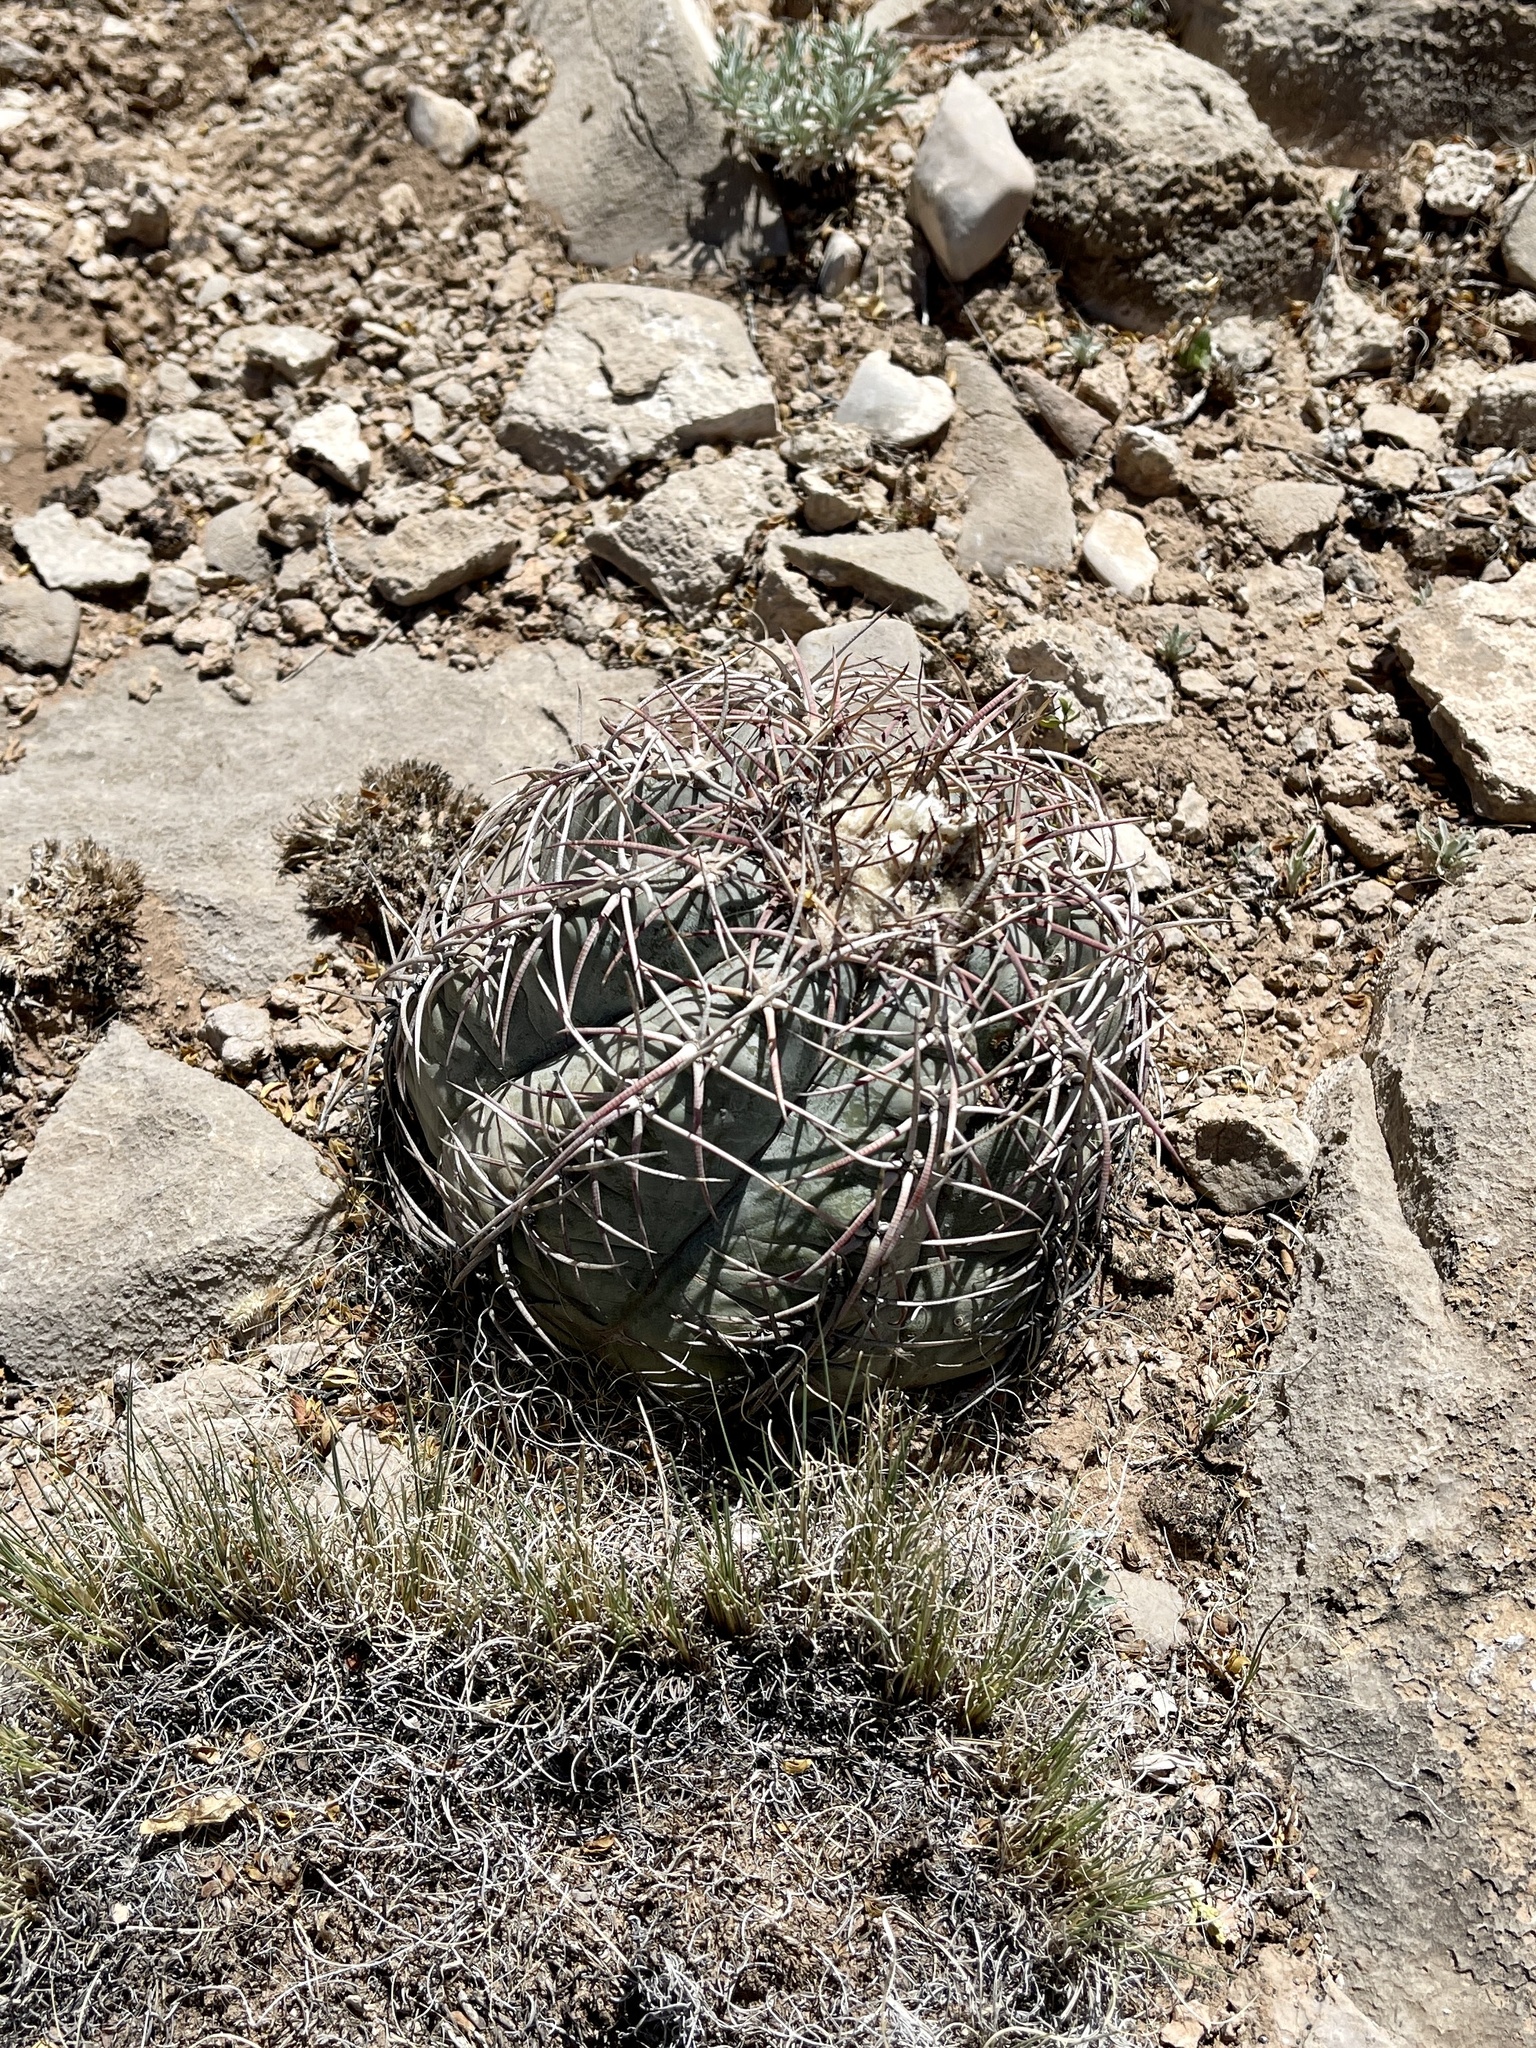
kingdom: Plantae
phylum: Tracheophyta
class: Magnoliopsida
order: Caryophyllales
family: Cactaceae
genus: Echinocactus
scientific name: Echinocactus horizonthalonius
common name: Devilshead
